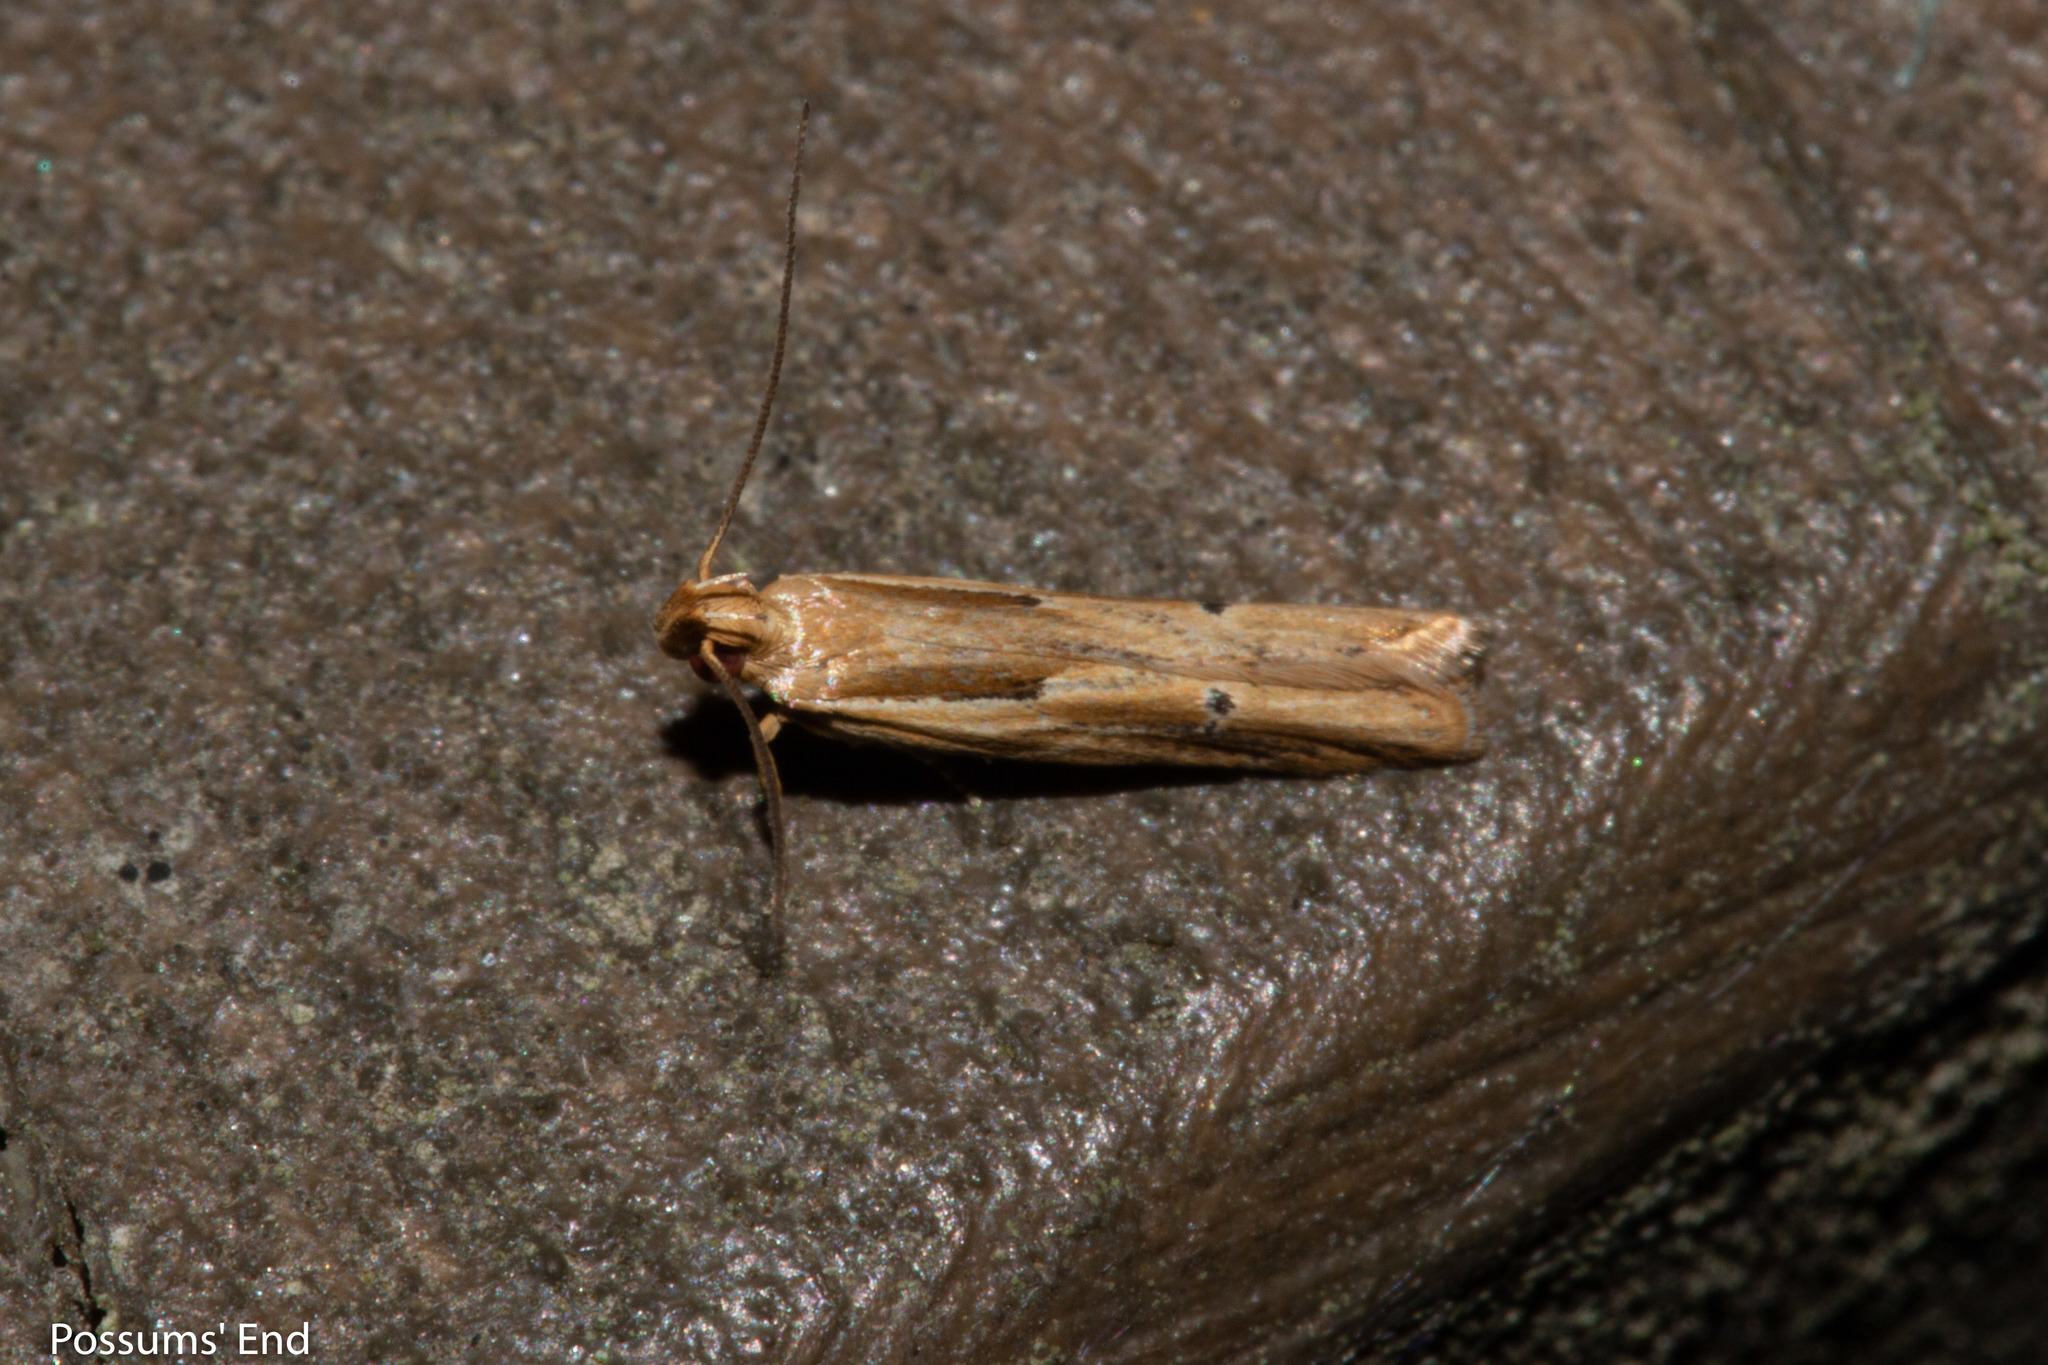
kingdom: Animalia
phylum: Arthropoda
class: Insecta
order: Lepidoptera
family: Depressariidae
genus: Eutorna
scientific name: Eutorna symmorpha
